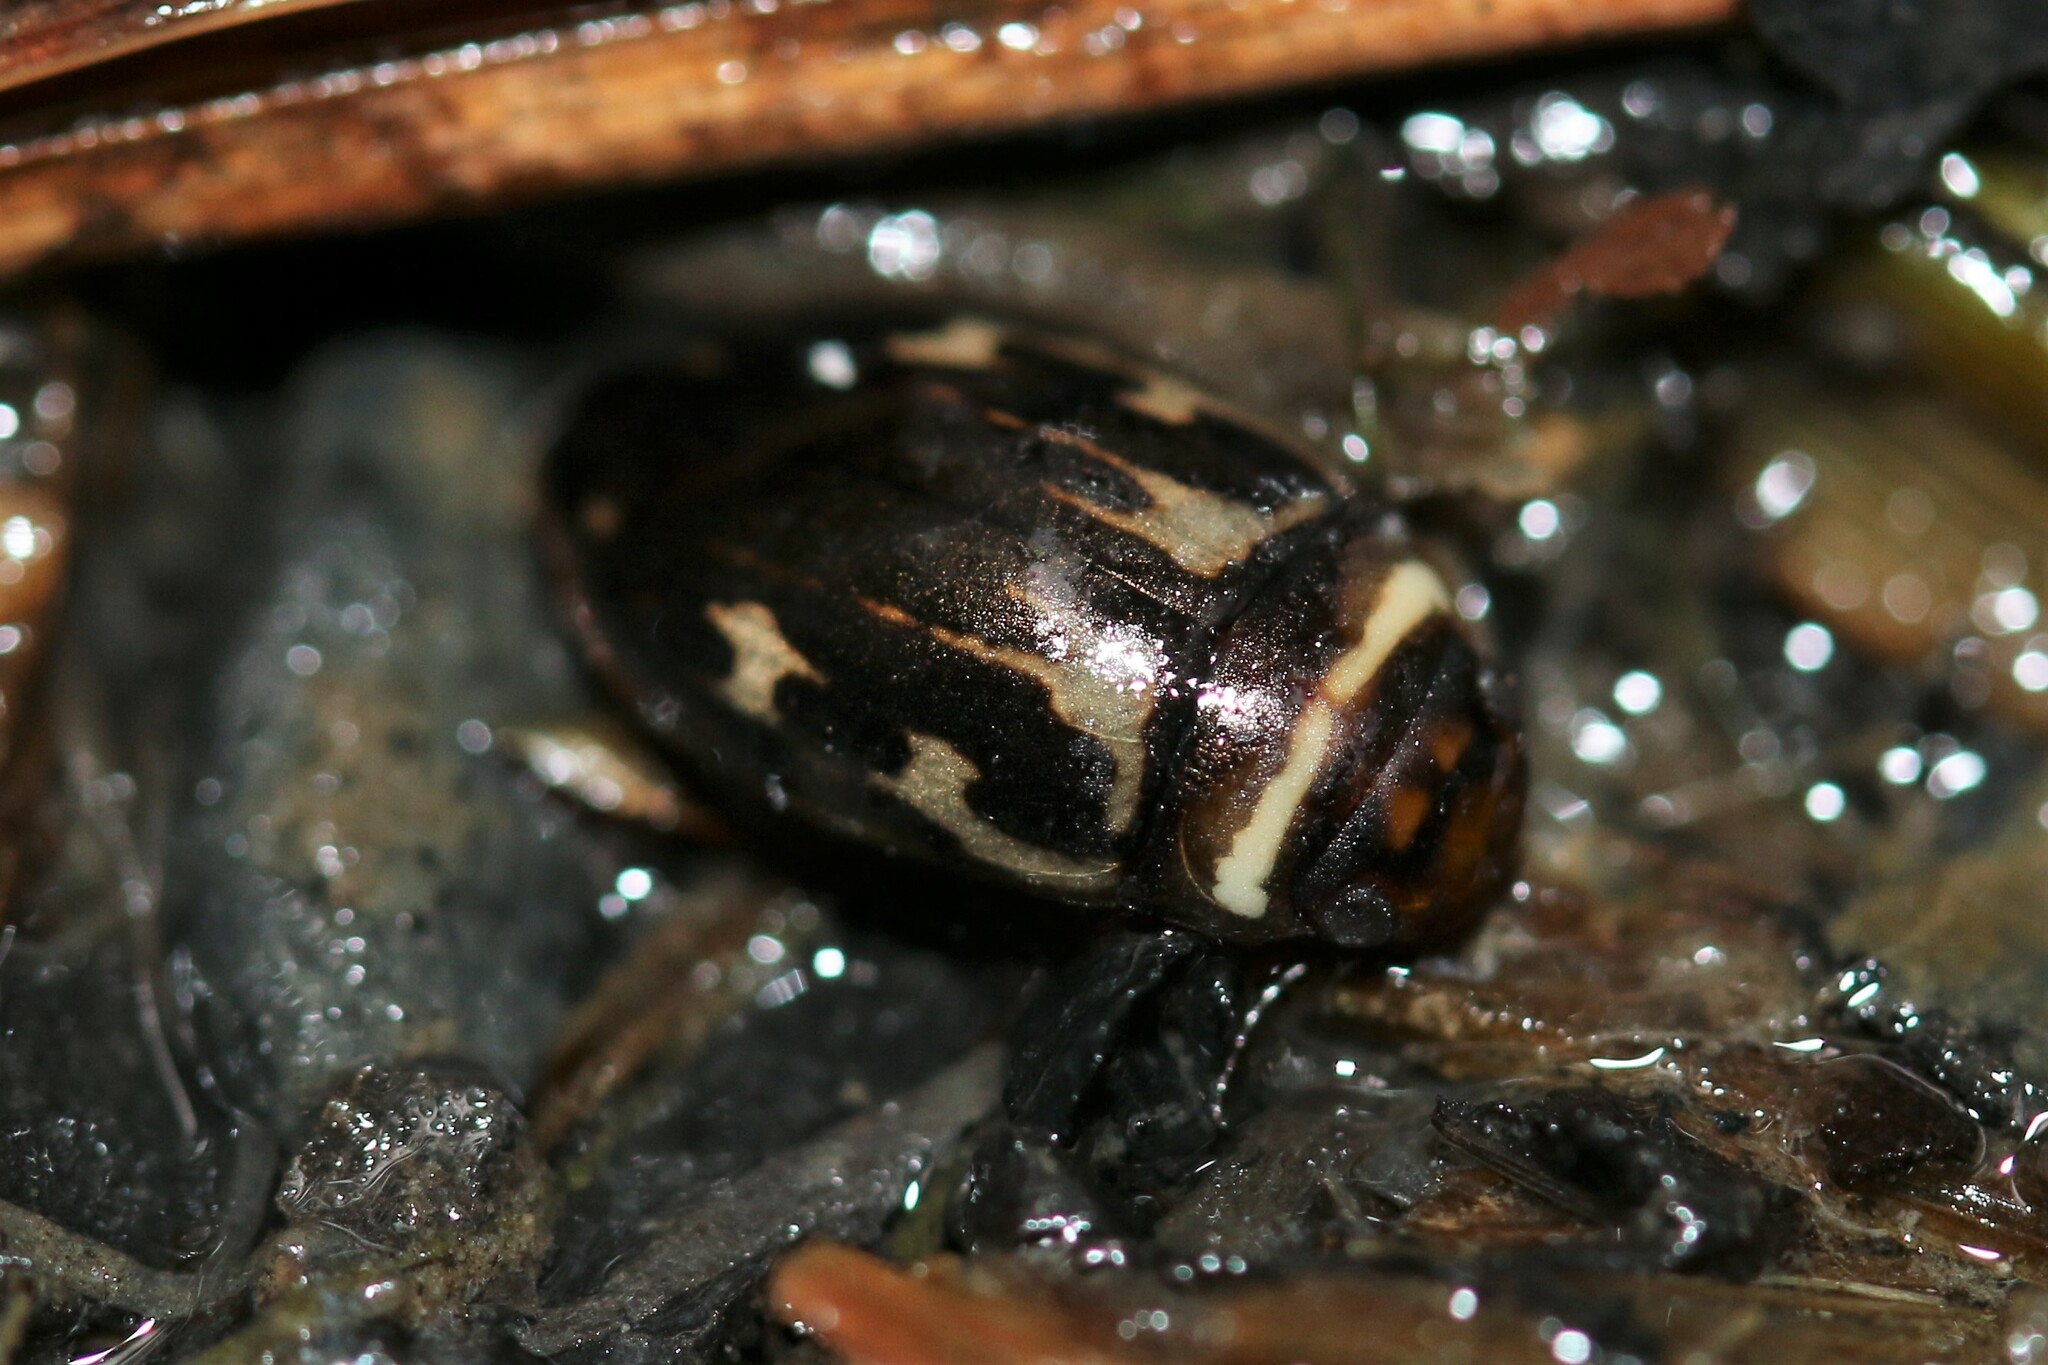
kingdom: Animalia
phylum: Arthropoda
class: Insecta
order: Coleoptera
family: Dytiscidae
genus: Platambus
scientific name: Platambus maculatus
